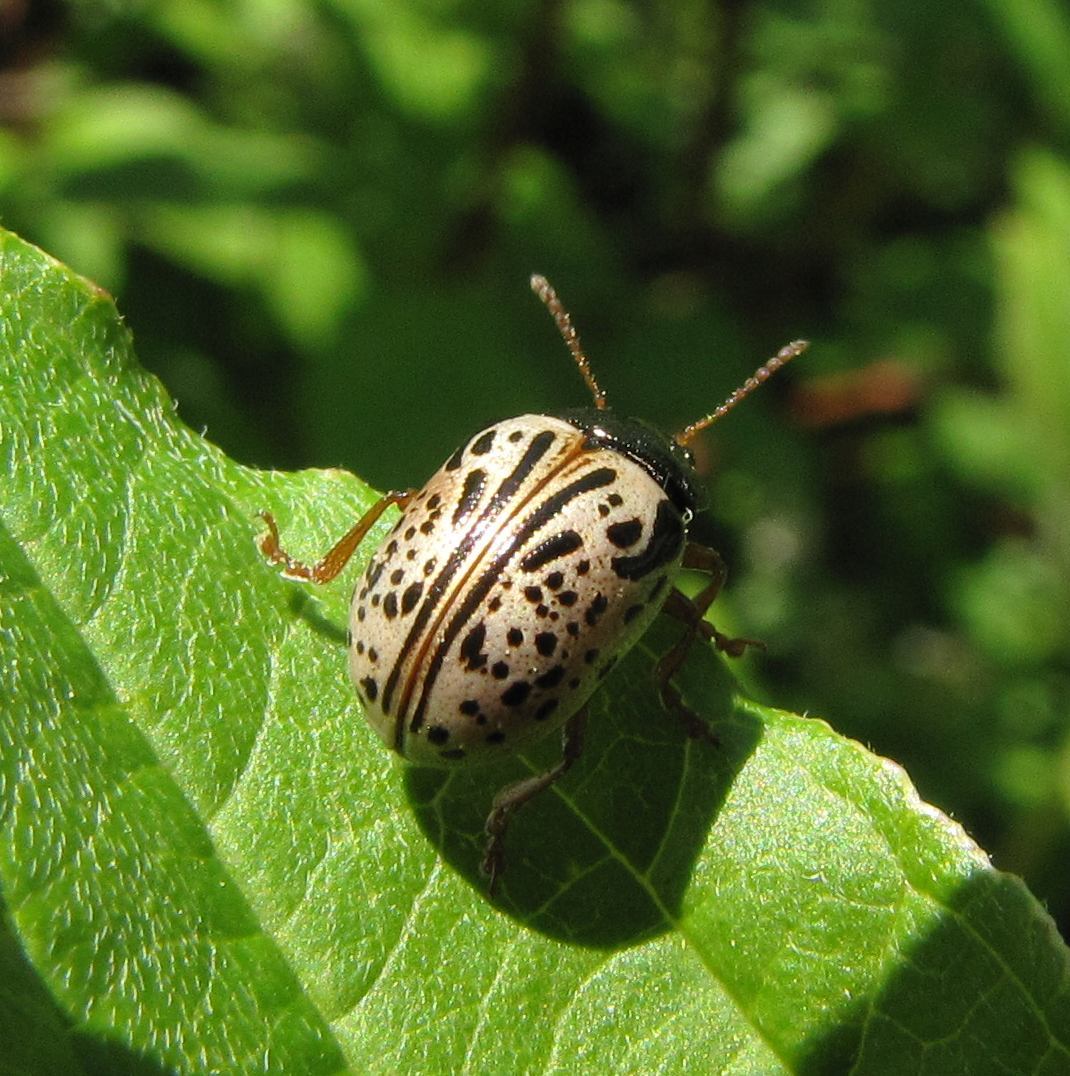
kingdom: Animalia
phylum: Arthropoda
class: Insecta
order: Coleoptera
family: Chrysomelidae
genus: Calligrapha
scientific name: Calligrapha philadelphica
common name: Dogwood leaf beetle
